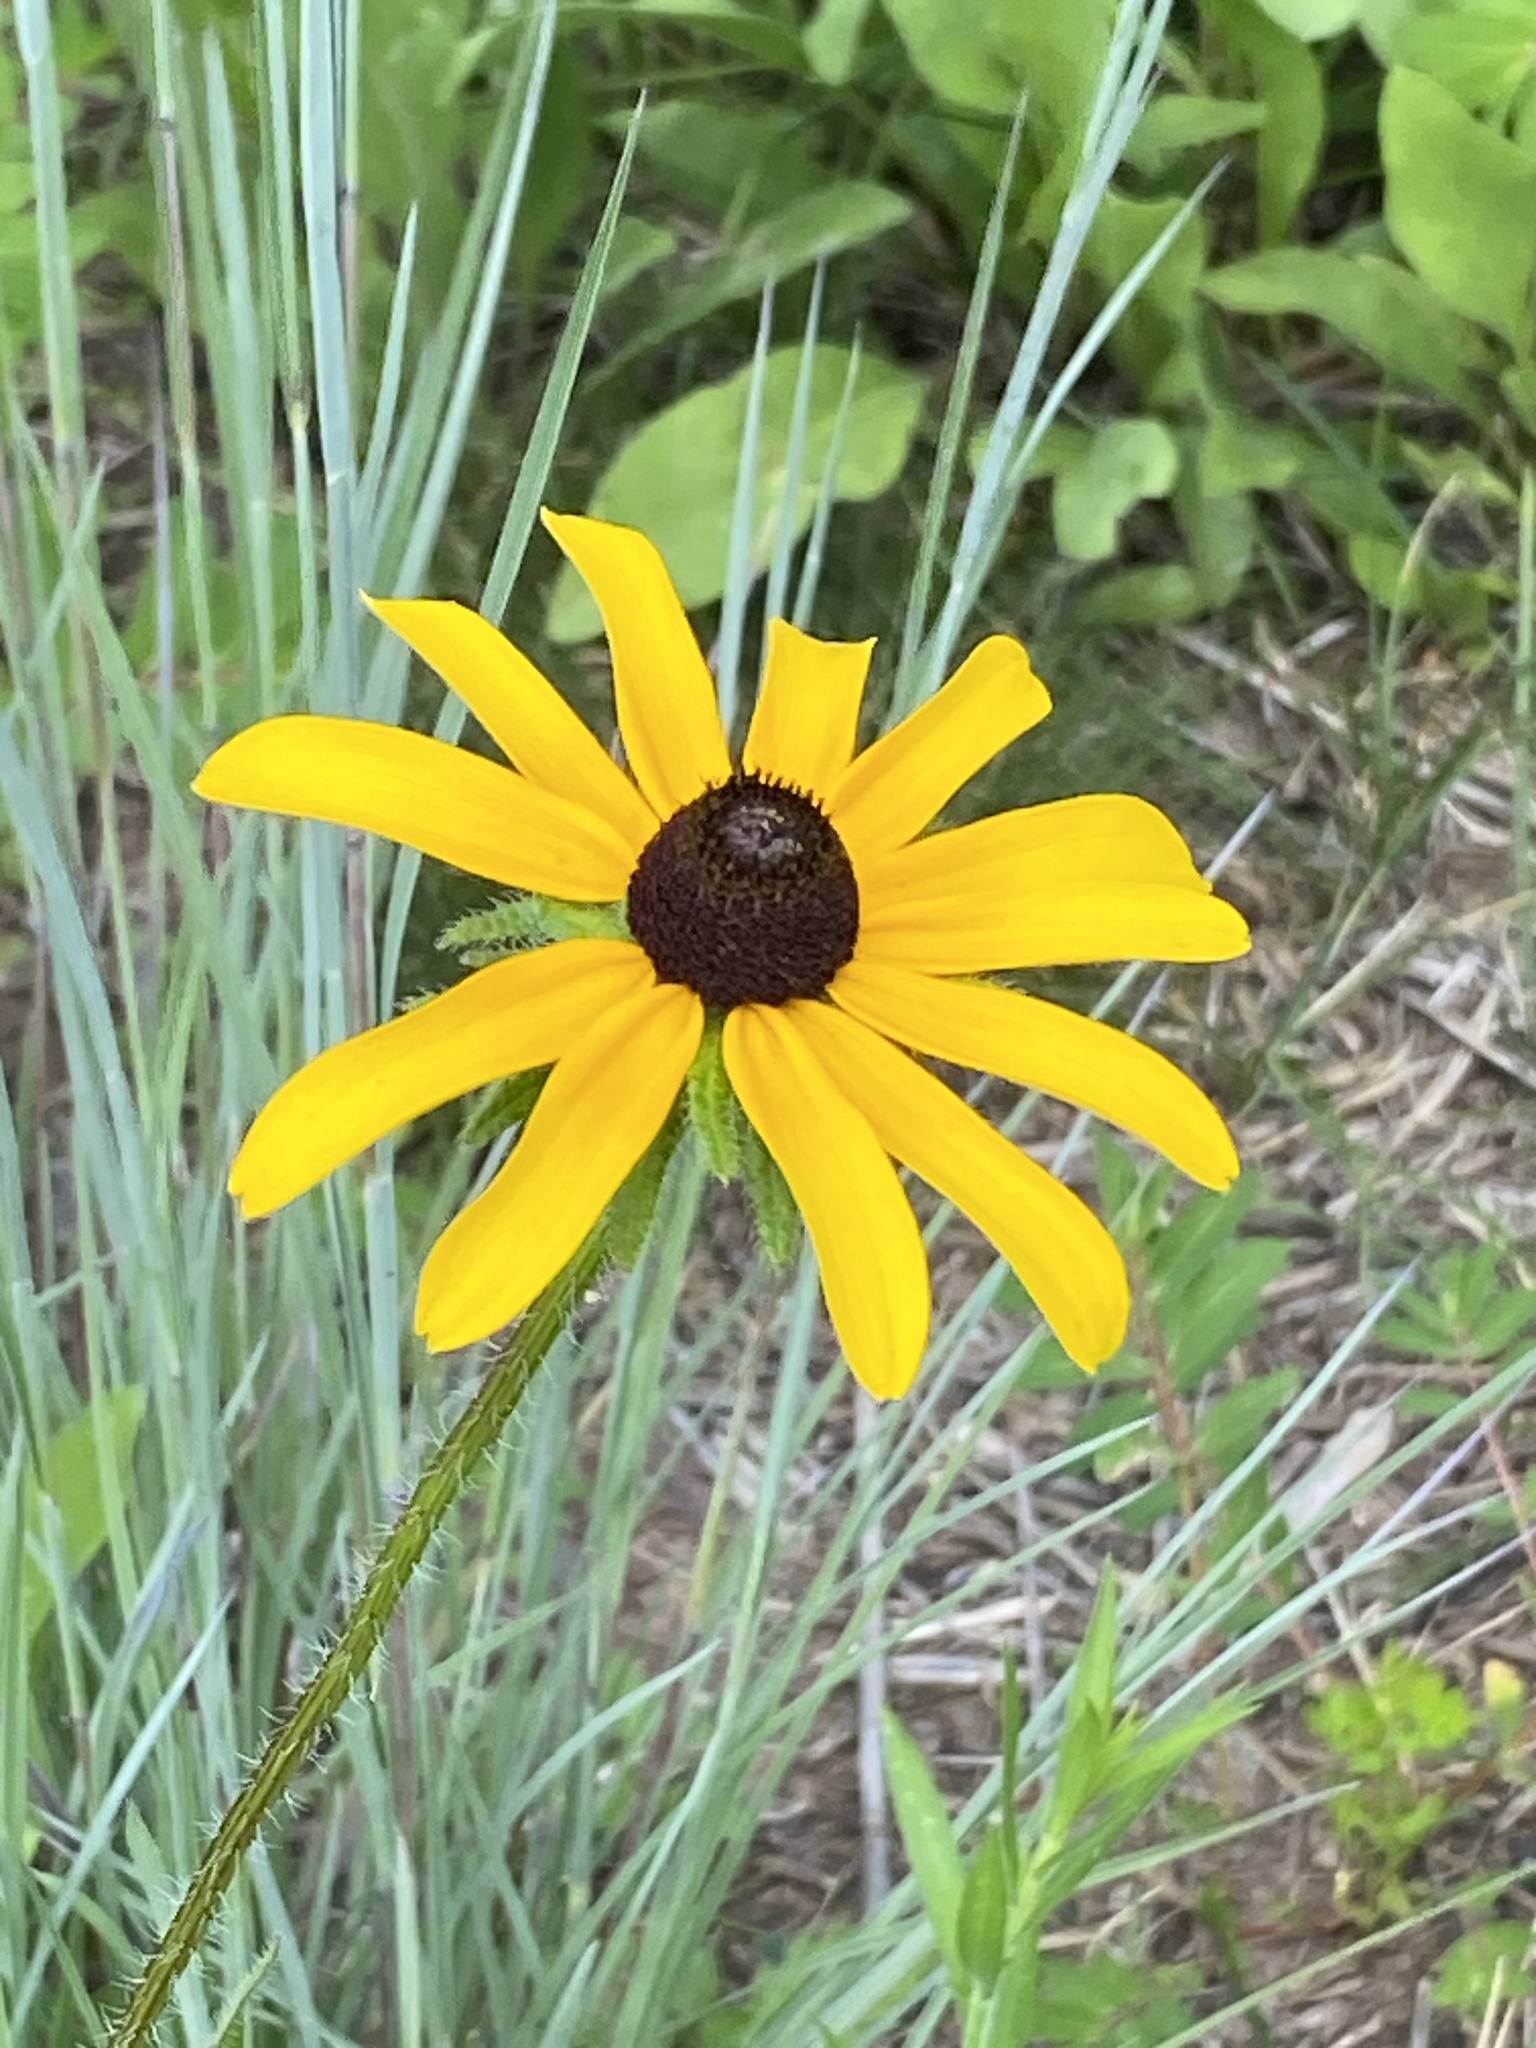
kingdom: Plantae
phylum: Tracheophyta
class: Magnoliopsida
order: Asterales
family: Asteraceae
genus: Rudbeckia
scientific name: Rudbeckia hirta
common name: Black-eyed-susan
